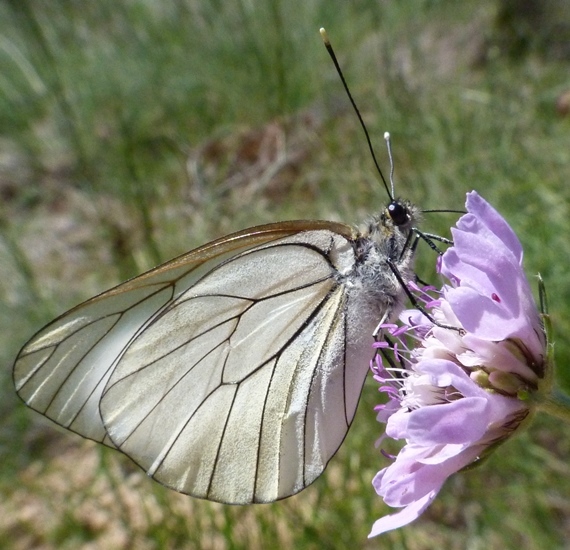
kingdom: Animalia
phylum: Arthropoda
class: Insecta
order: Lepidoptera
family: Pieridae
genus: Aporia
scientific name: Aporia crataegi
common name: Black-veined white
